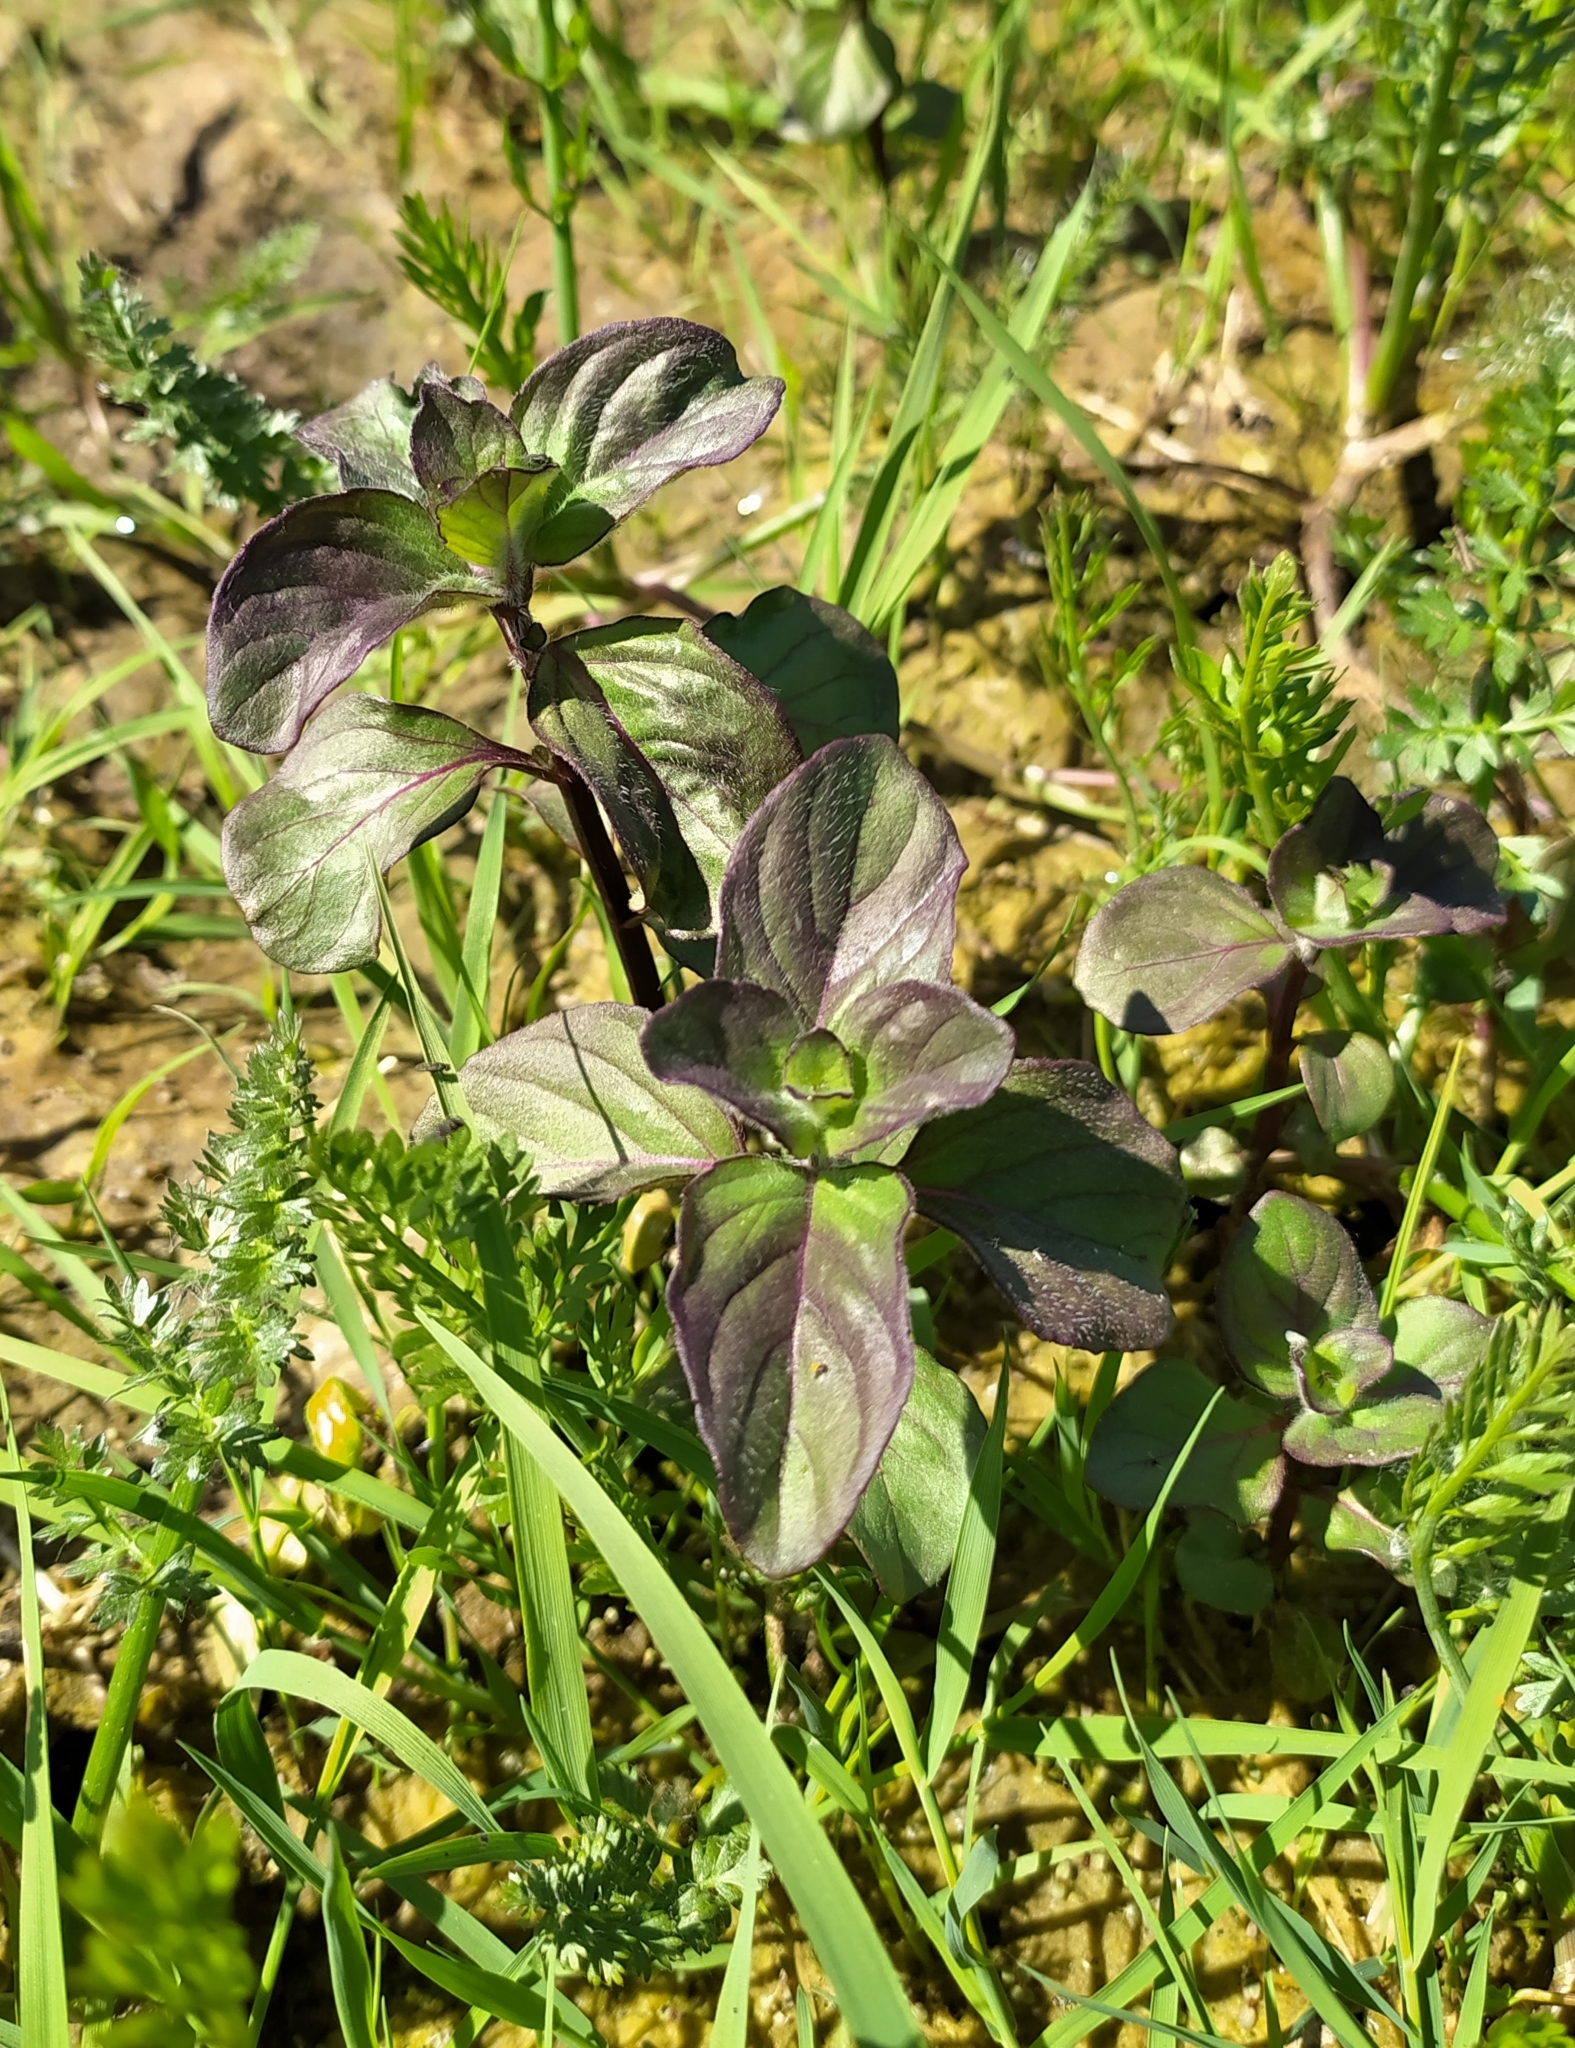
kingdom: Plantae
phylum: Tracheophyta
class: Magnoliopsida
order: Lamiales
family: Lamiaceae
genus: Mentha
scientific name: Mentha aquatica
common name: Water mint
